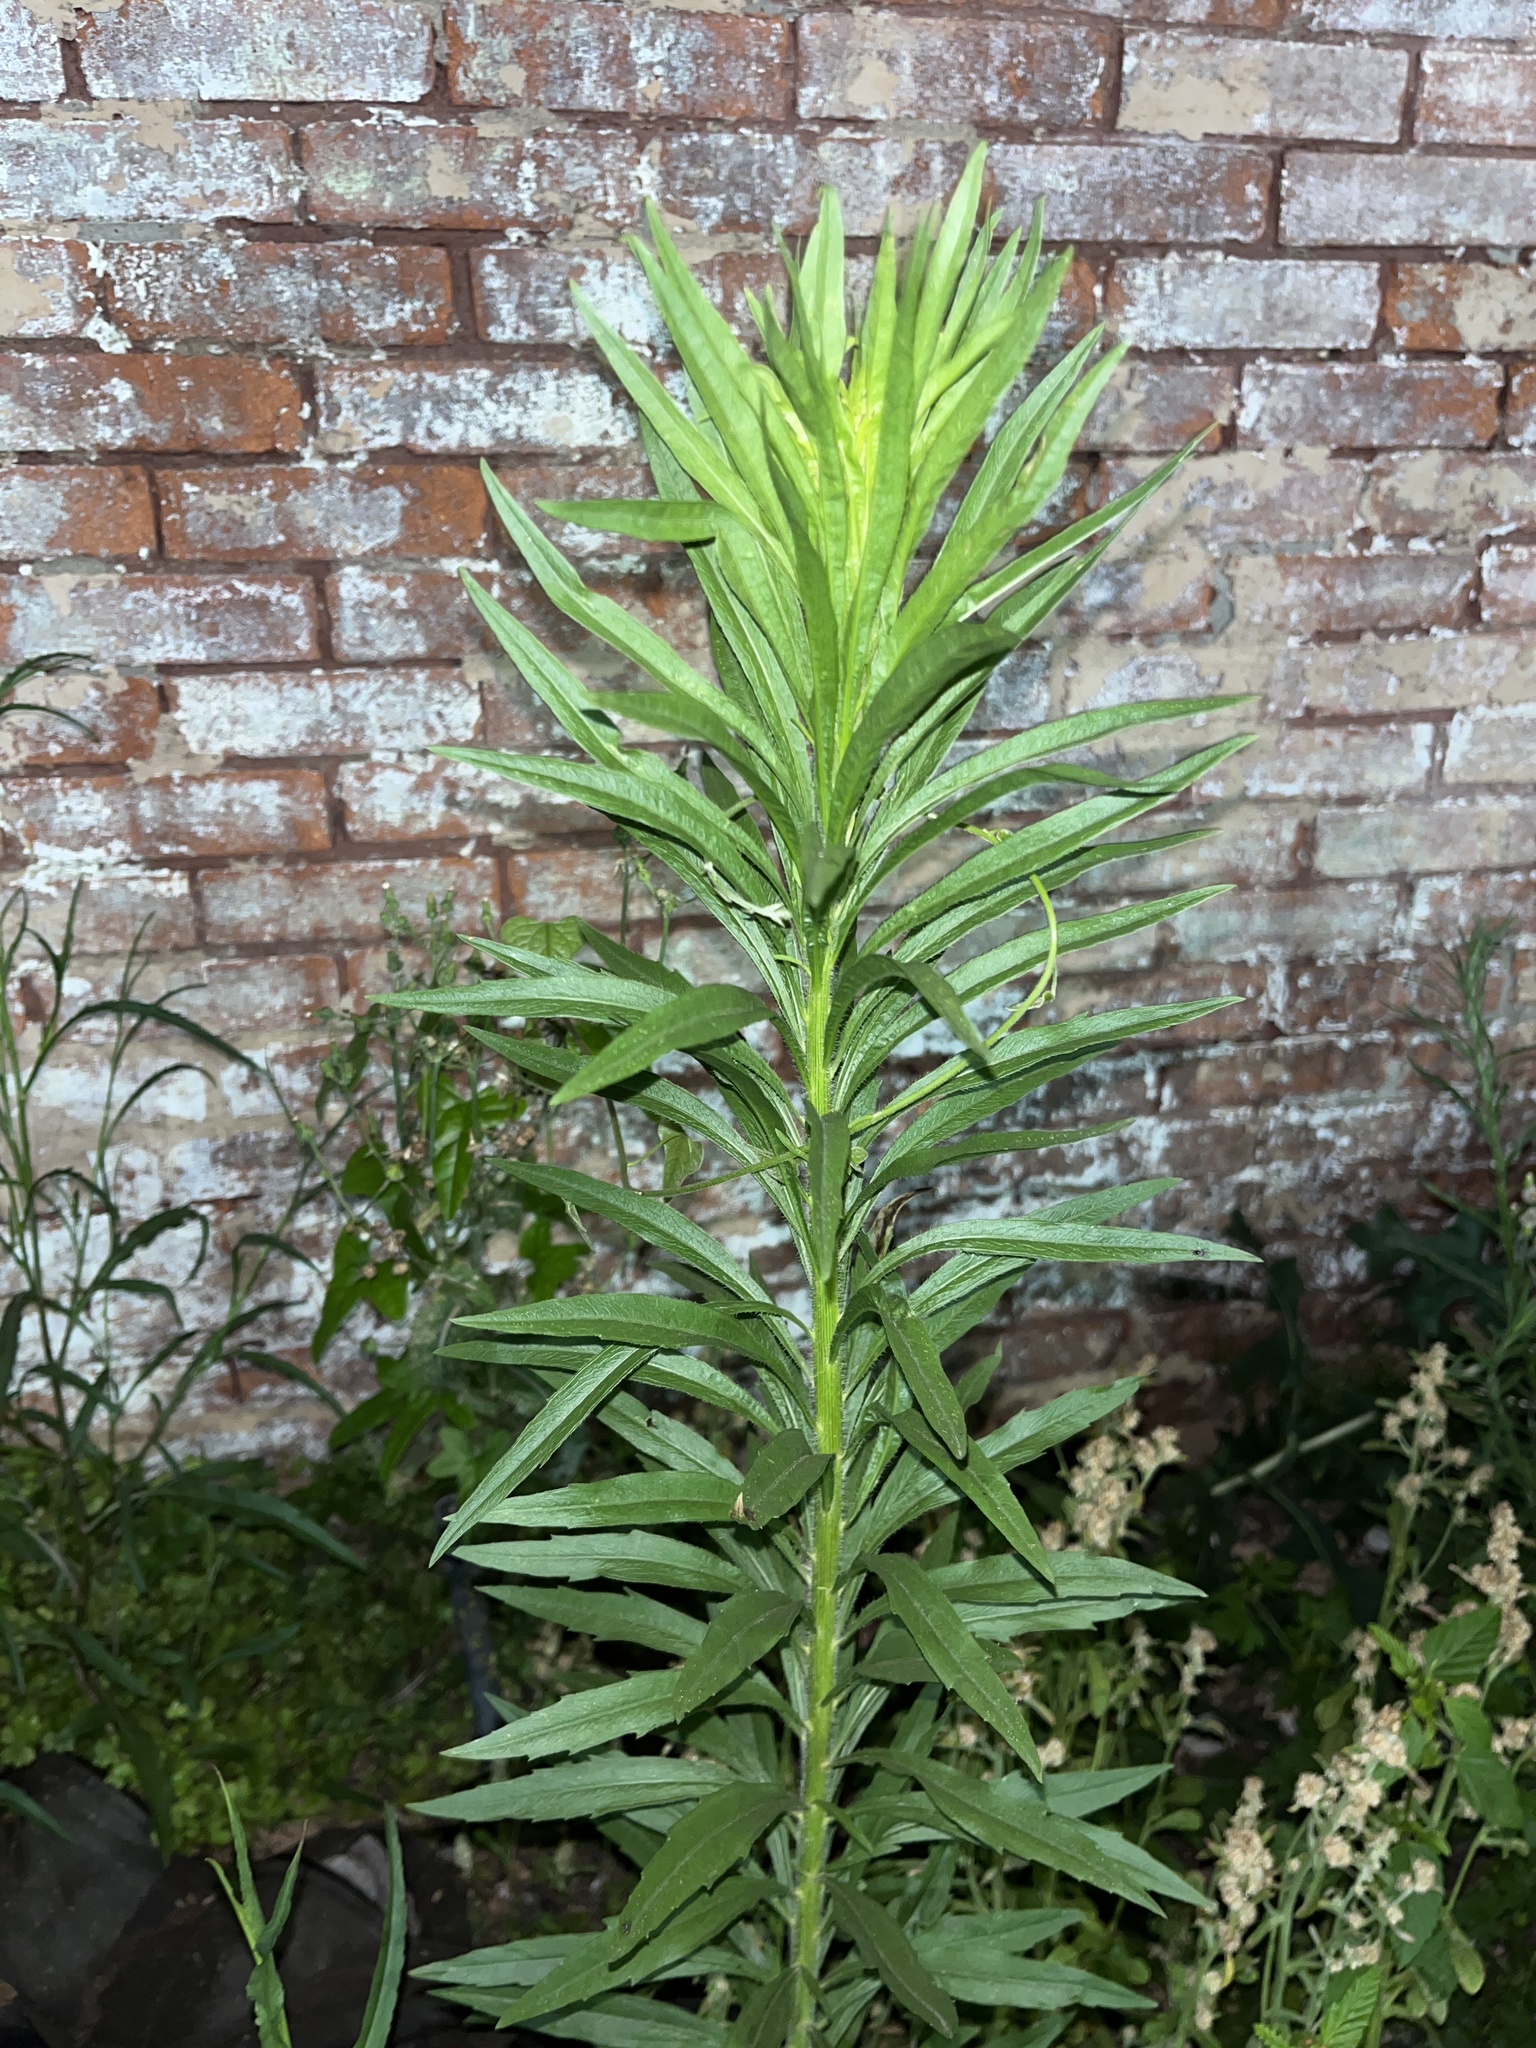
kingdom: Plantae
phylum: Tracheophyta
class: Magnoliopsida
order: Asterales
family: Asteraceae
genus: Erigeron
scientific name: Erigeron canadensis
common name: Canadian fleabane
